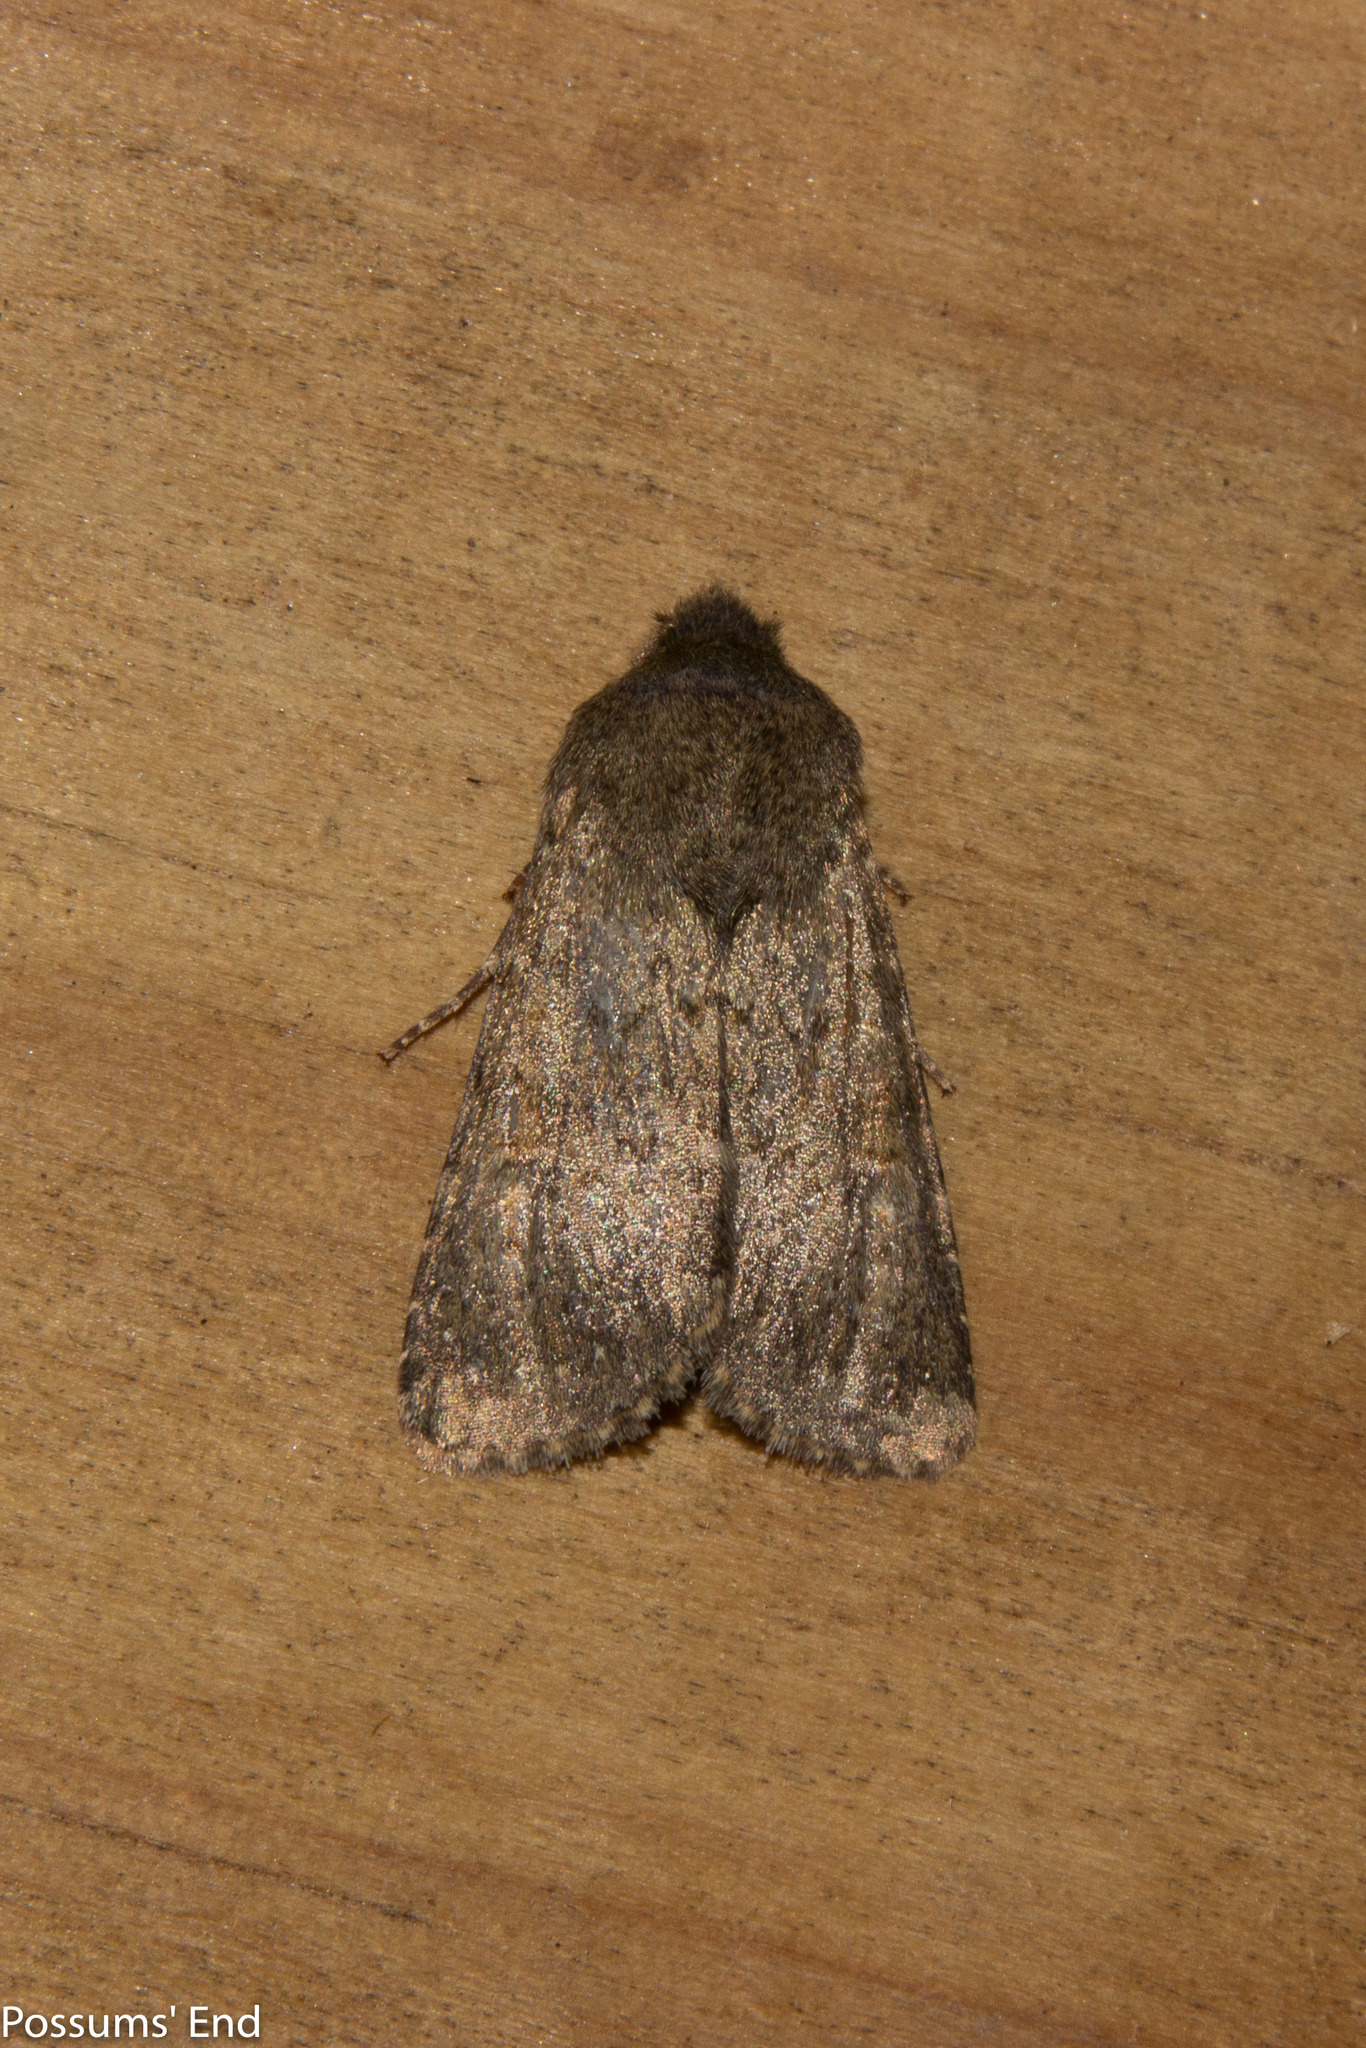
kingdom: Animalia
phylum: Arthropoda
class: Insecta
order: Lepidoptera
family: Noctuidae
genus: Ichneutica
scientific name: Ichneutica moderata
